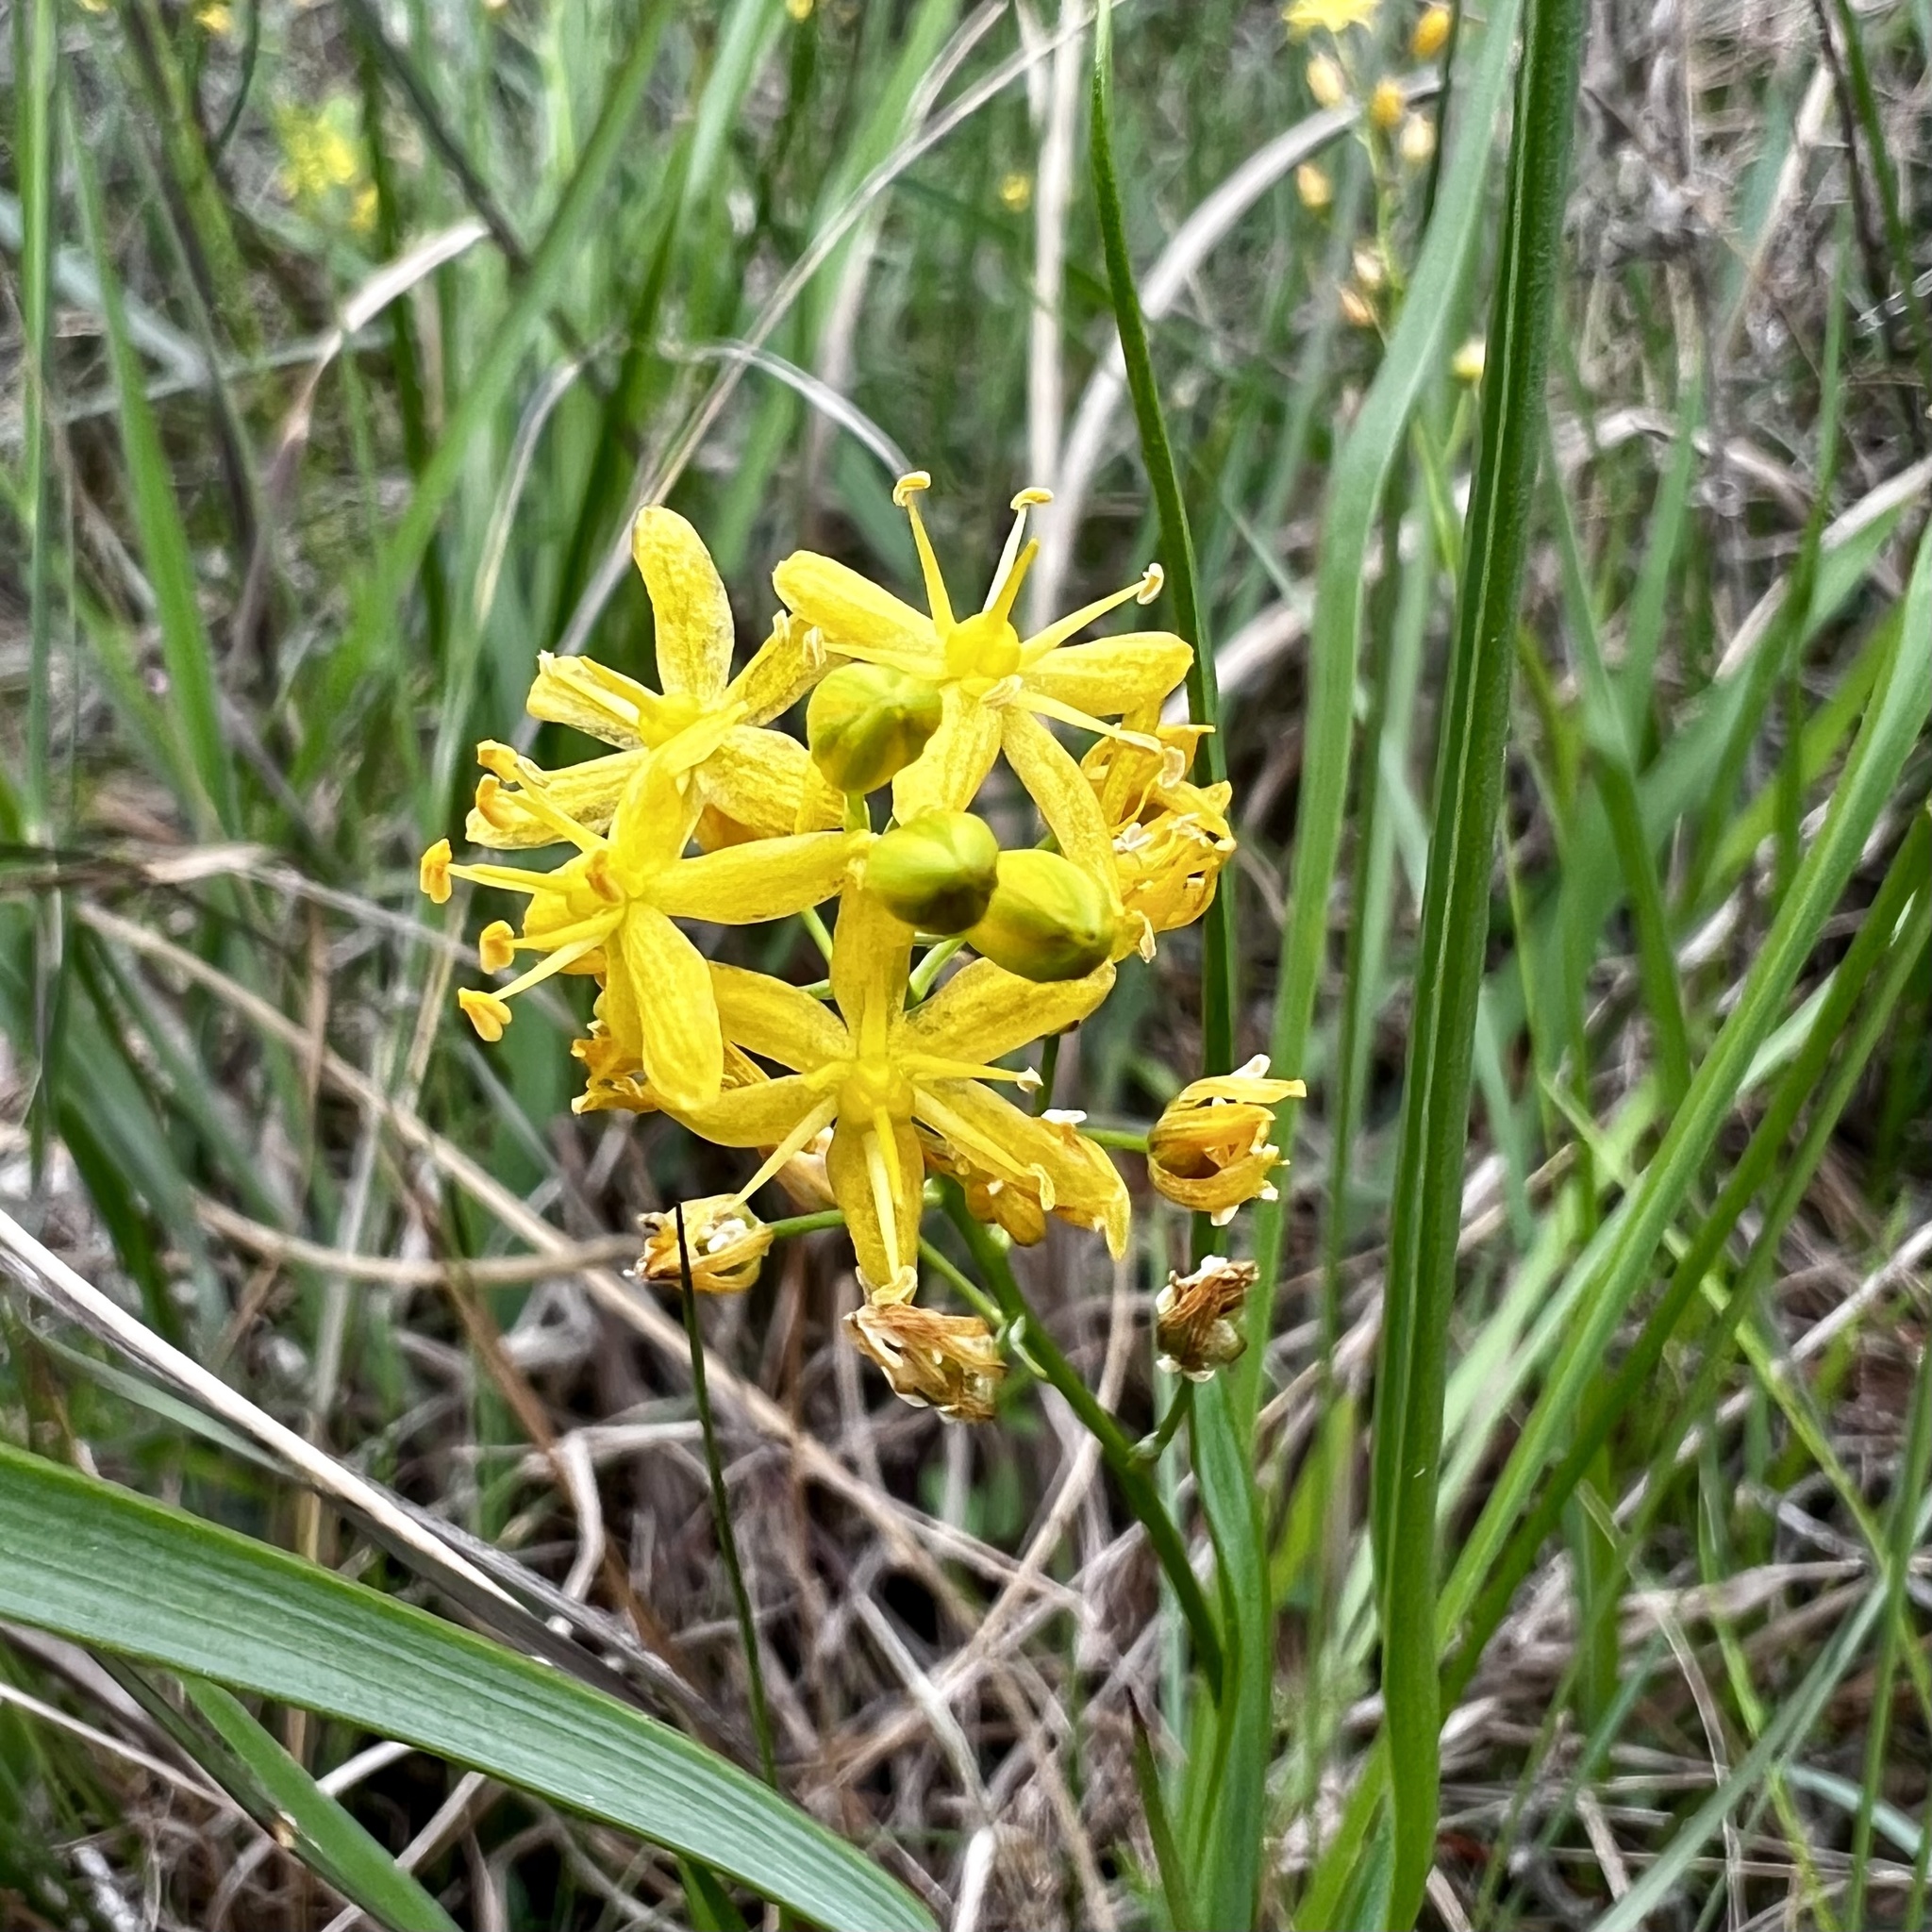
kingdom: Plantae
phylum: Tracheophyta
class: Liliopsida
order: Asparagales
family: Asparagaceae
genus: Schoenolirion
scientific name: Schoenolirion croceum
